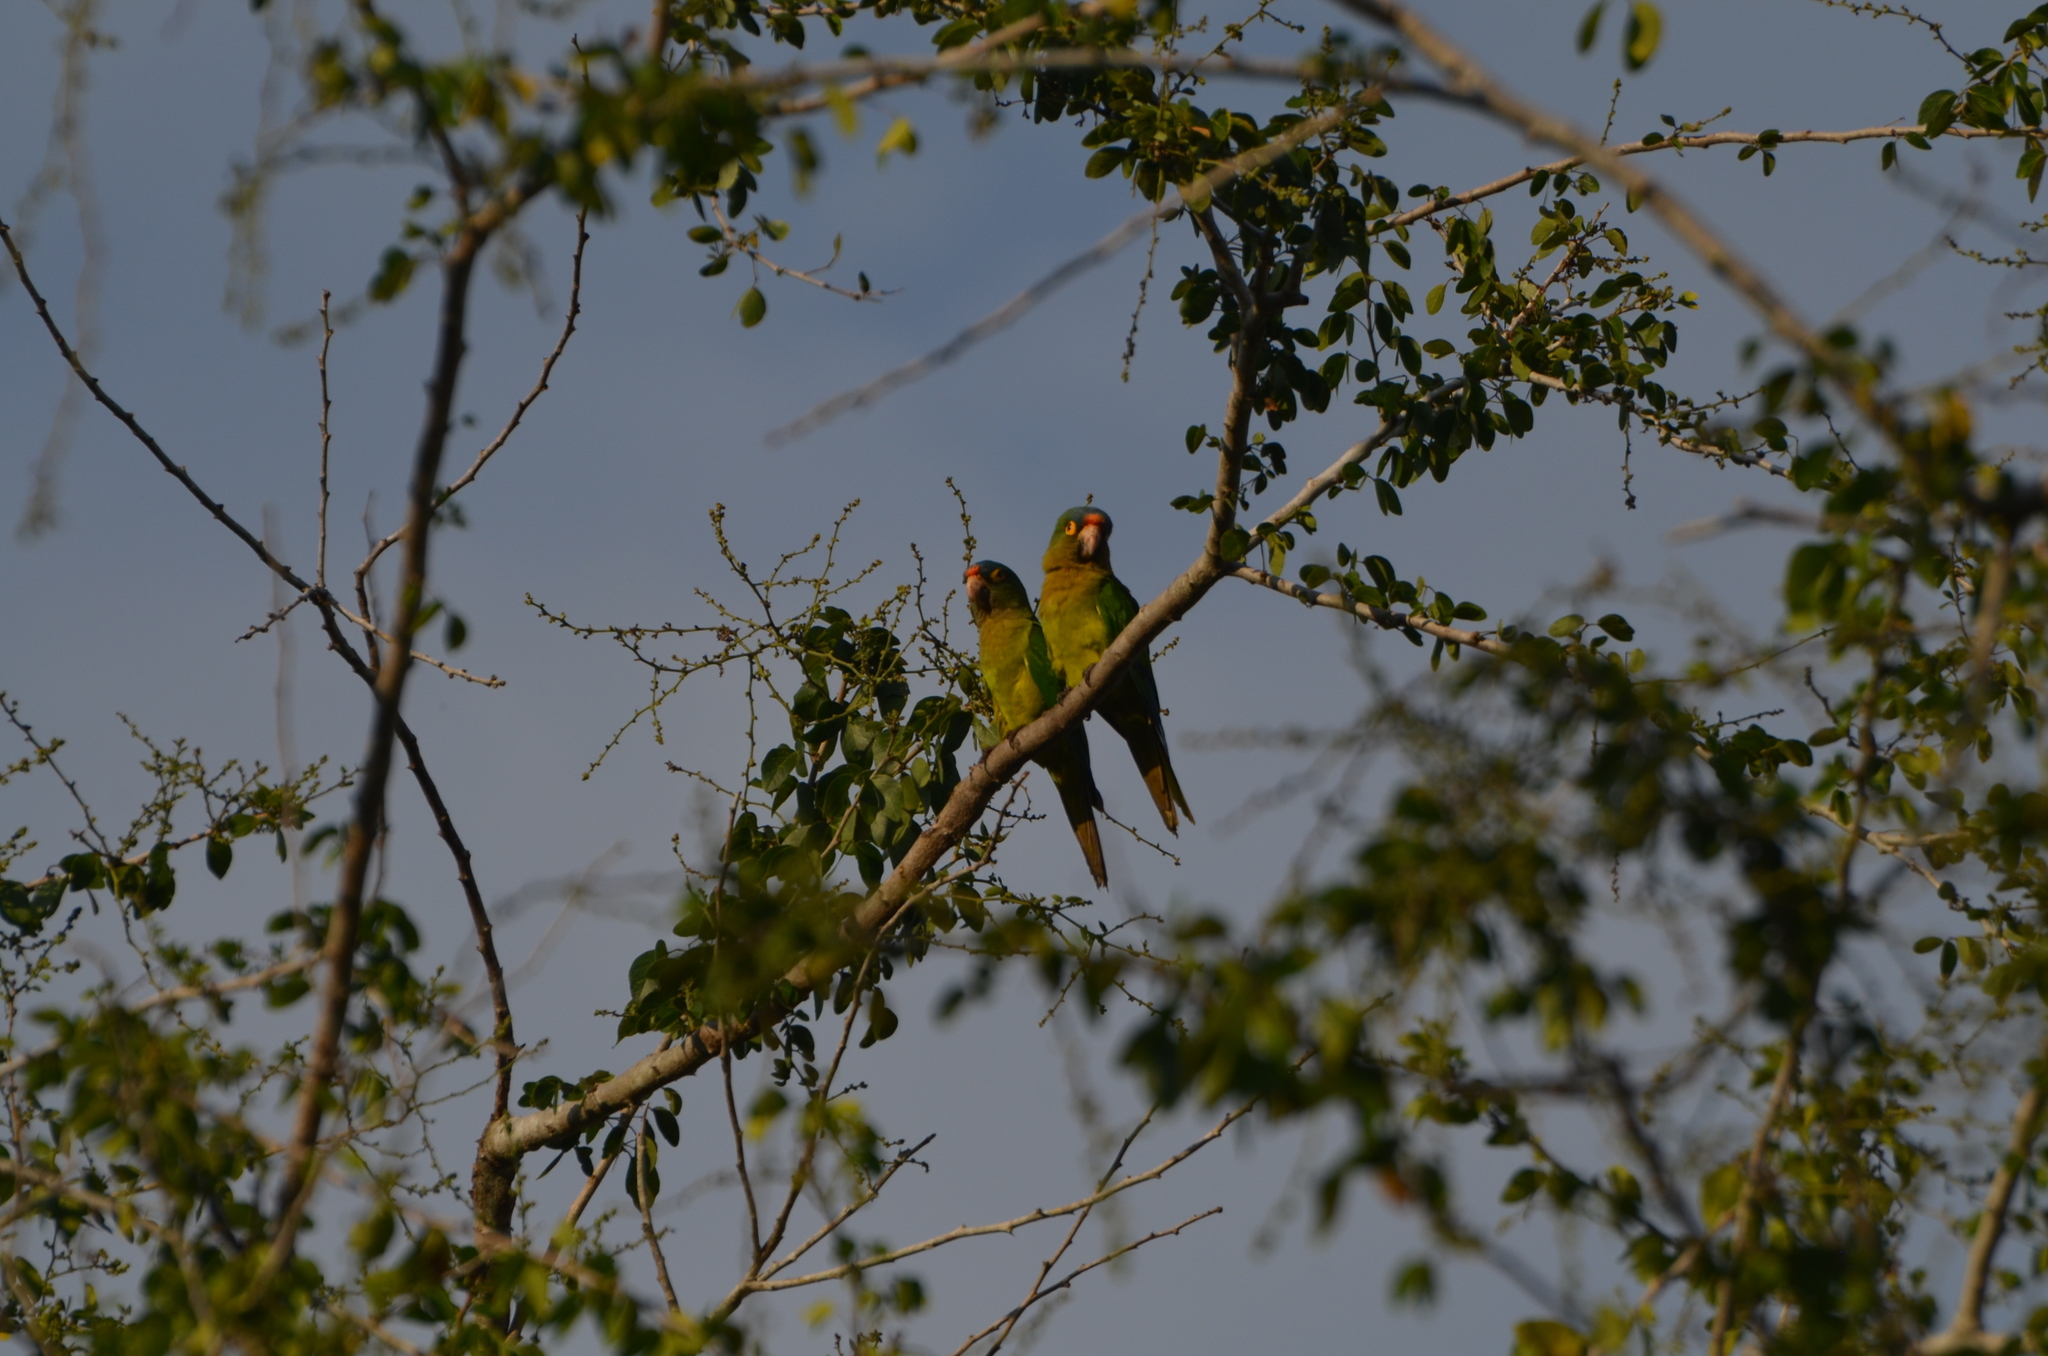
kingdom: Animalia
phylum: Chordata
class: Aves
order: Psittaciformes
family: Psittacidae
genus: Aratinga
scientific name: Aratinga canicularis
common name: Orange-fronted parakeet
